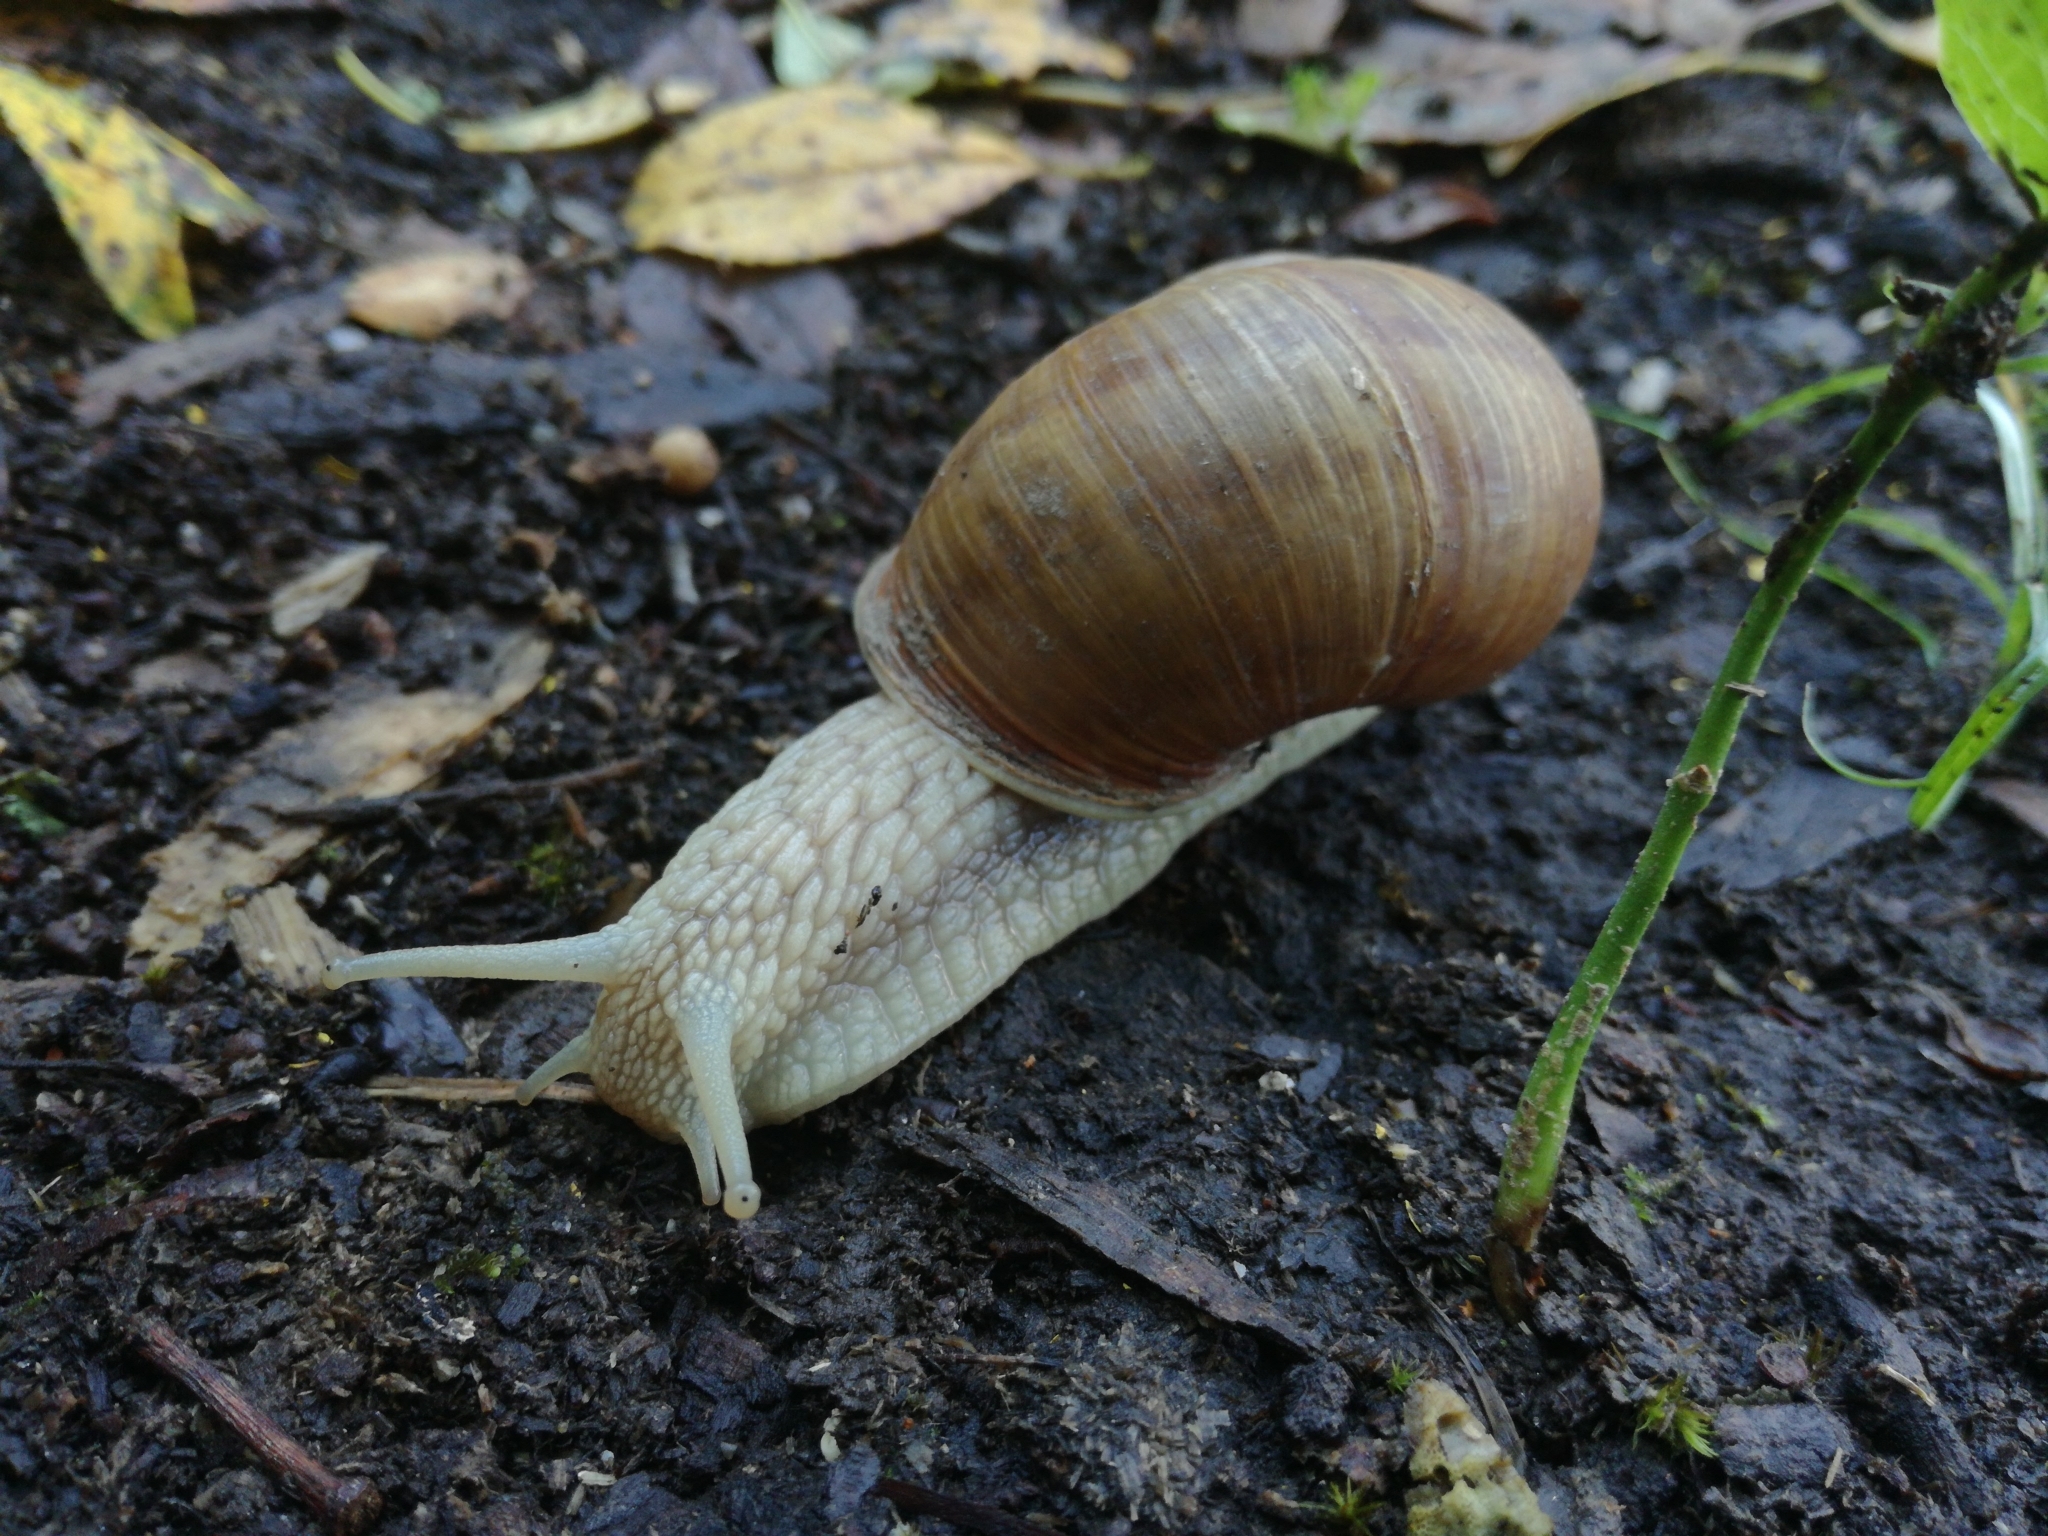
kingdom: Animalia
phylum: Mollusca
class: Gastropoda
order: Stylommatophora
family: Helicidae
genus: Helix
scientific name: Helix pomatia
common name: Roman snail
